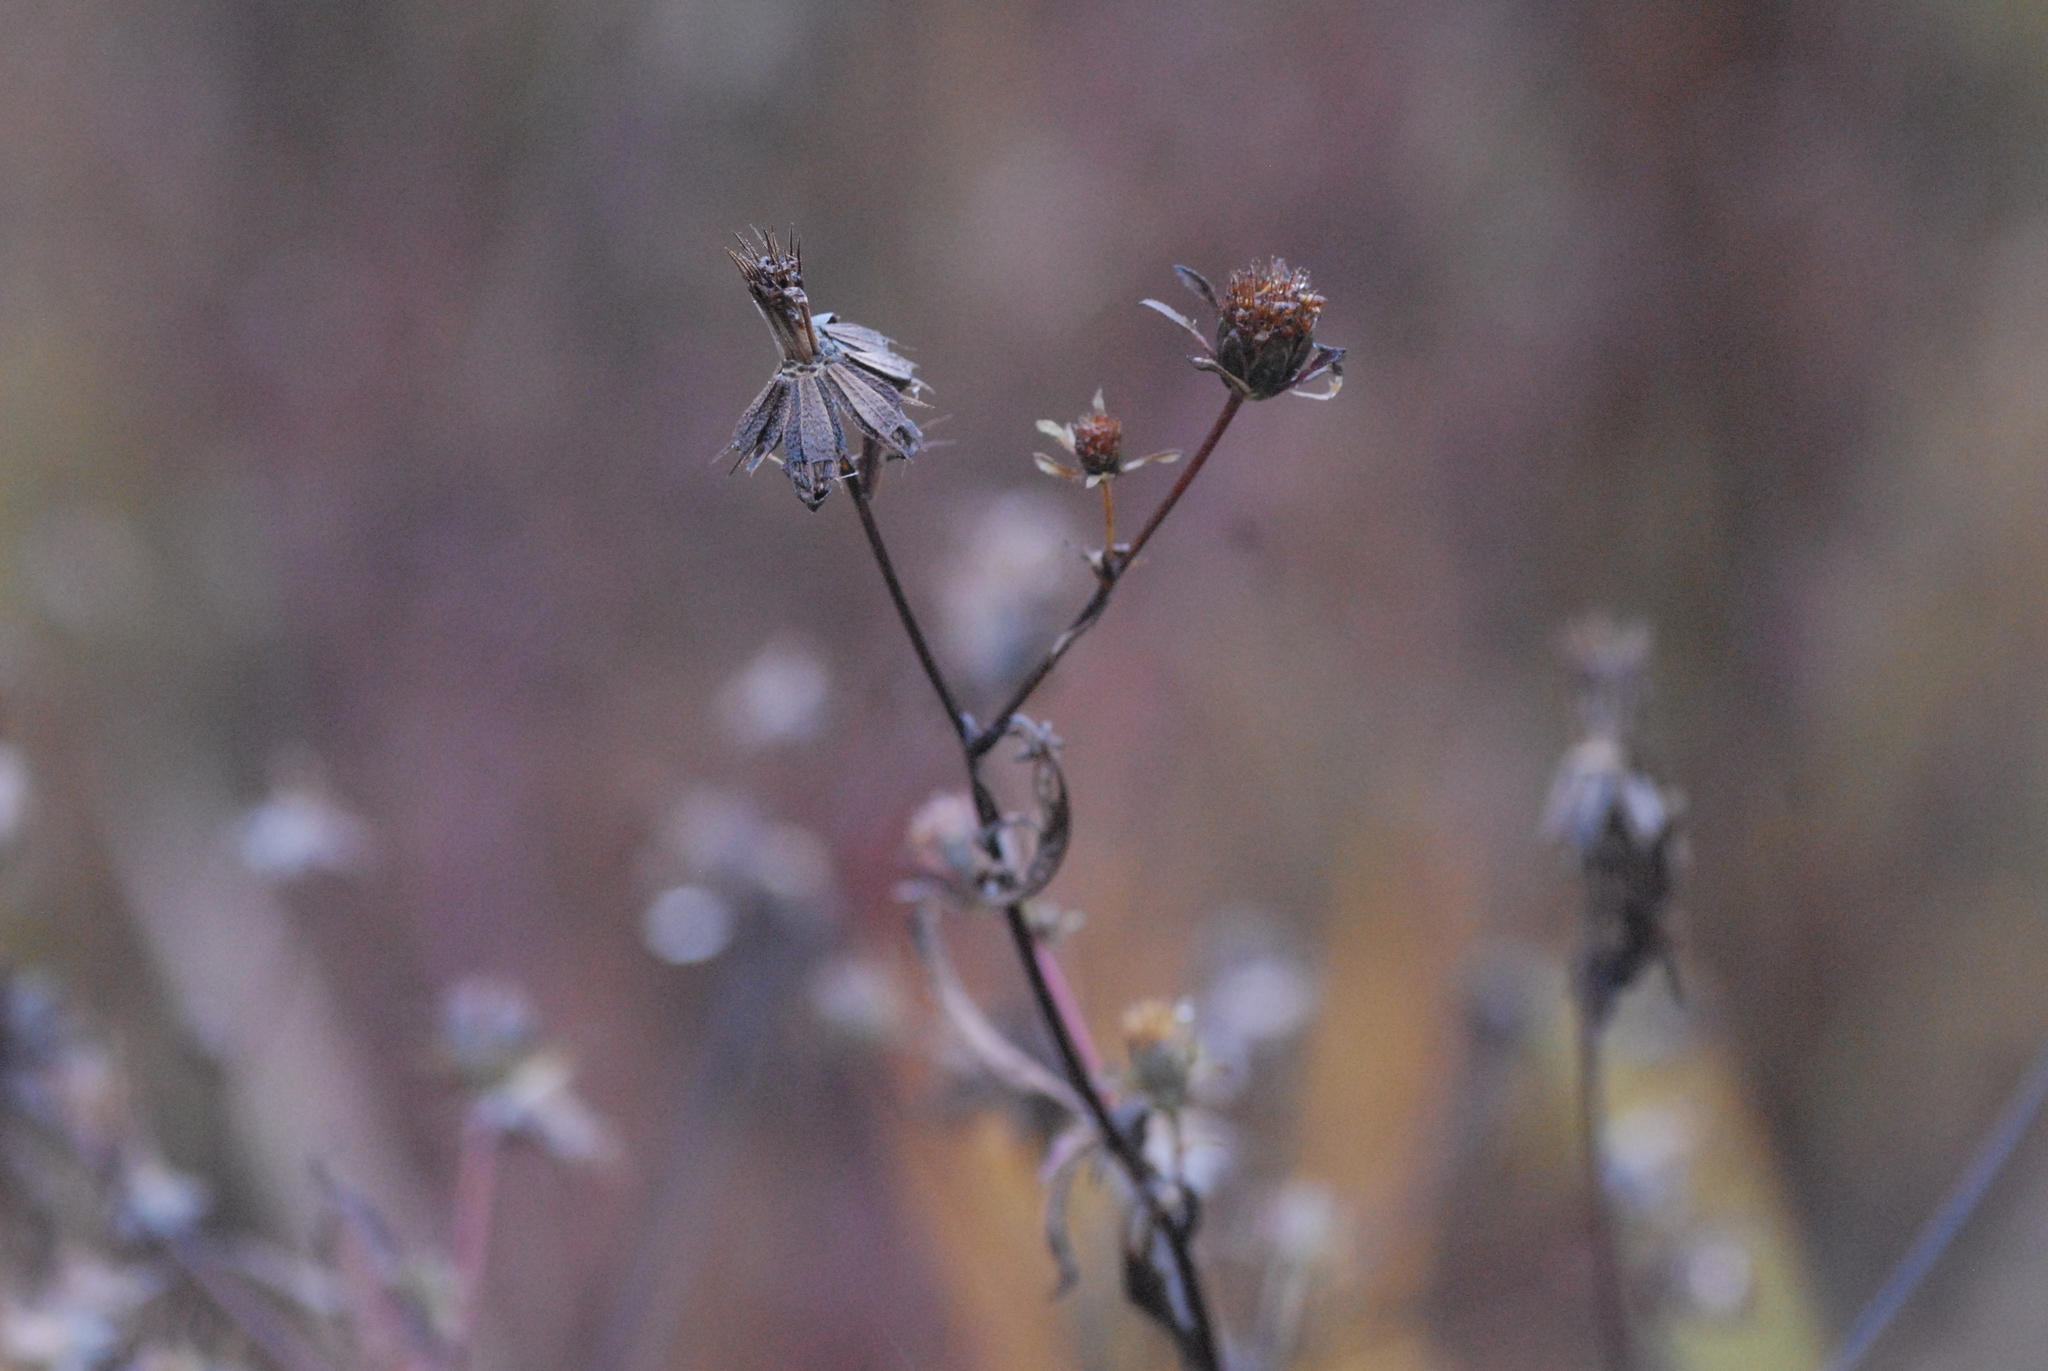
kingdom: Plantae
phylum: Tracheophyta
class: Magnoliopsida
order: Asterales
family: Asteraceae
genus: Bidens
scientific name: Bidens frondosa
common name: Beggarticks
